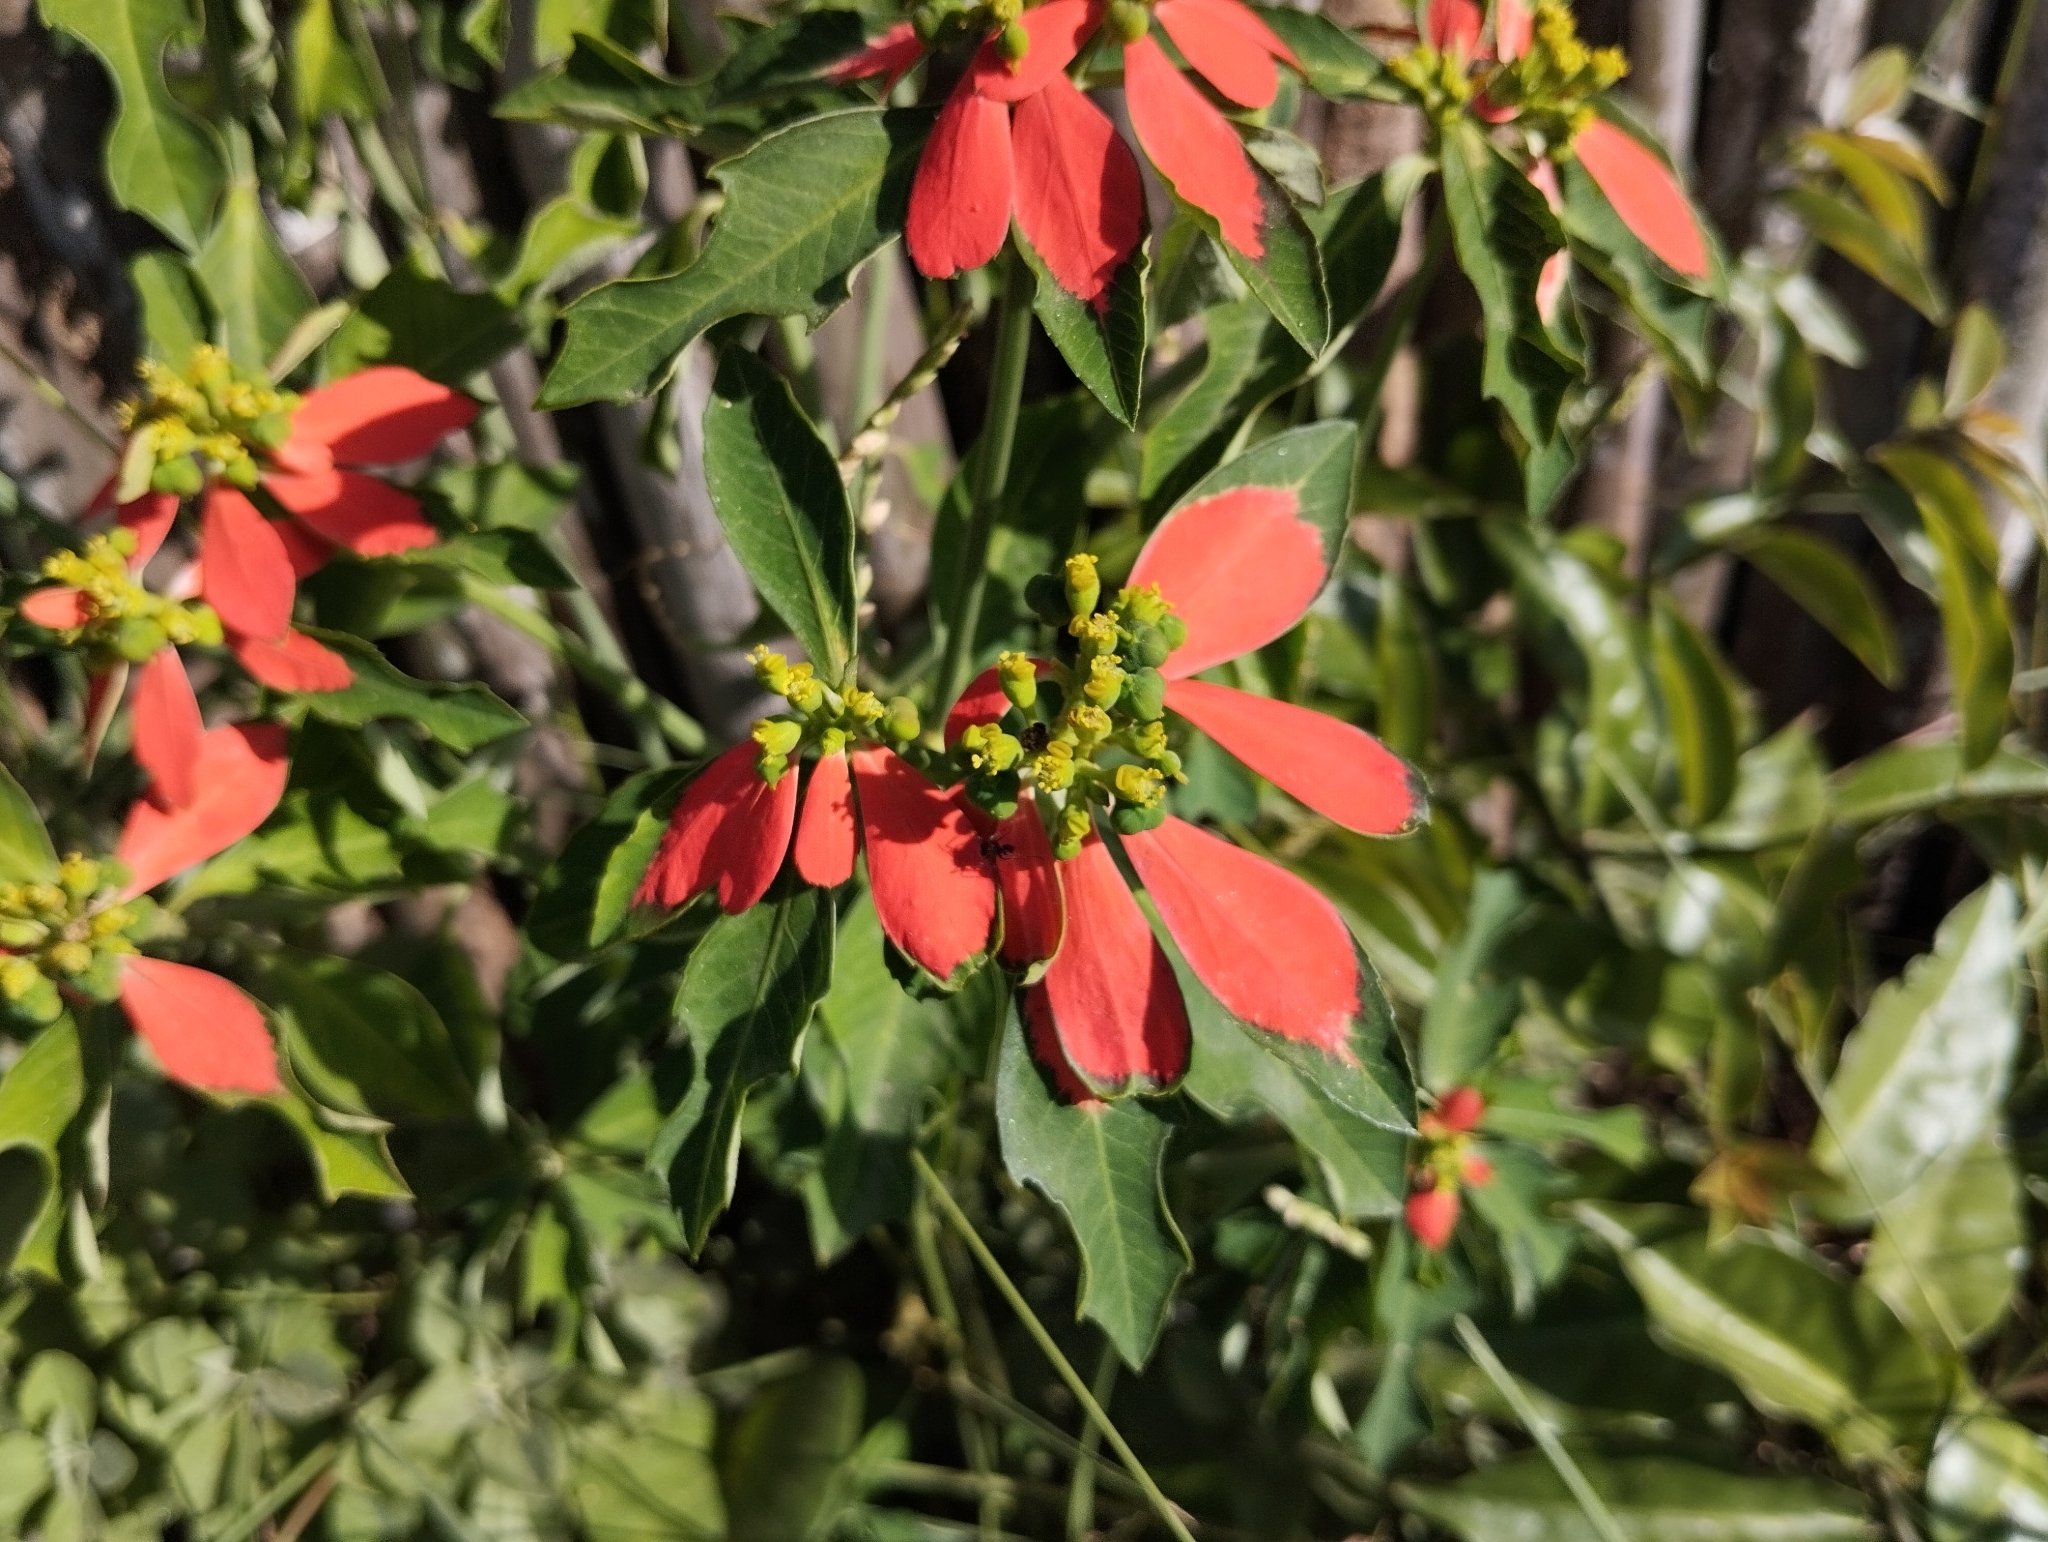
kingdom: Plantae
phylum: Tracheophyta
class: Magnoliopsida
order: Malpighiales
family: Euphorbiaceae
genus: Euphorbia
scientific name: Euphorbia heterophylla
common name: Mexican fireplant
